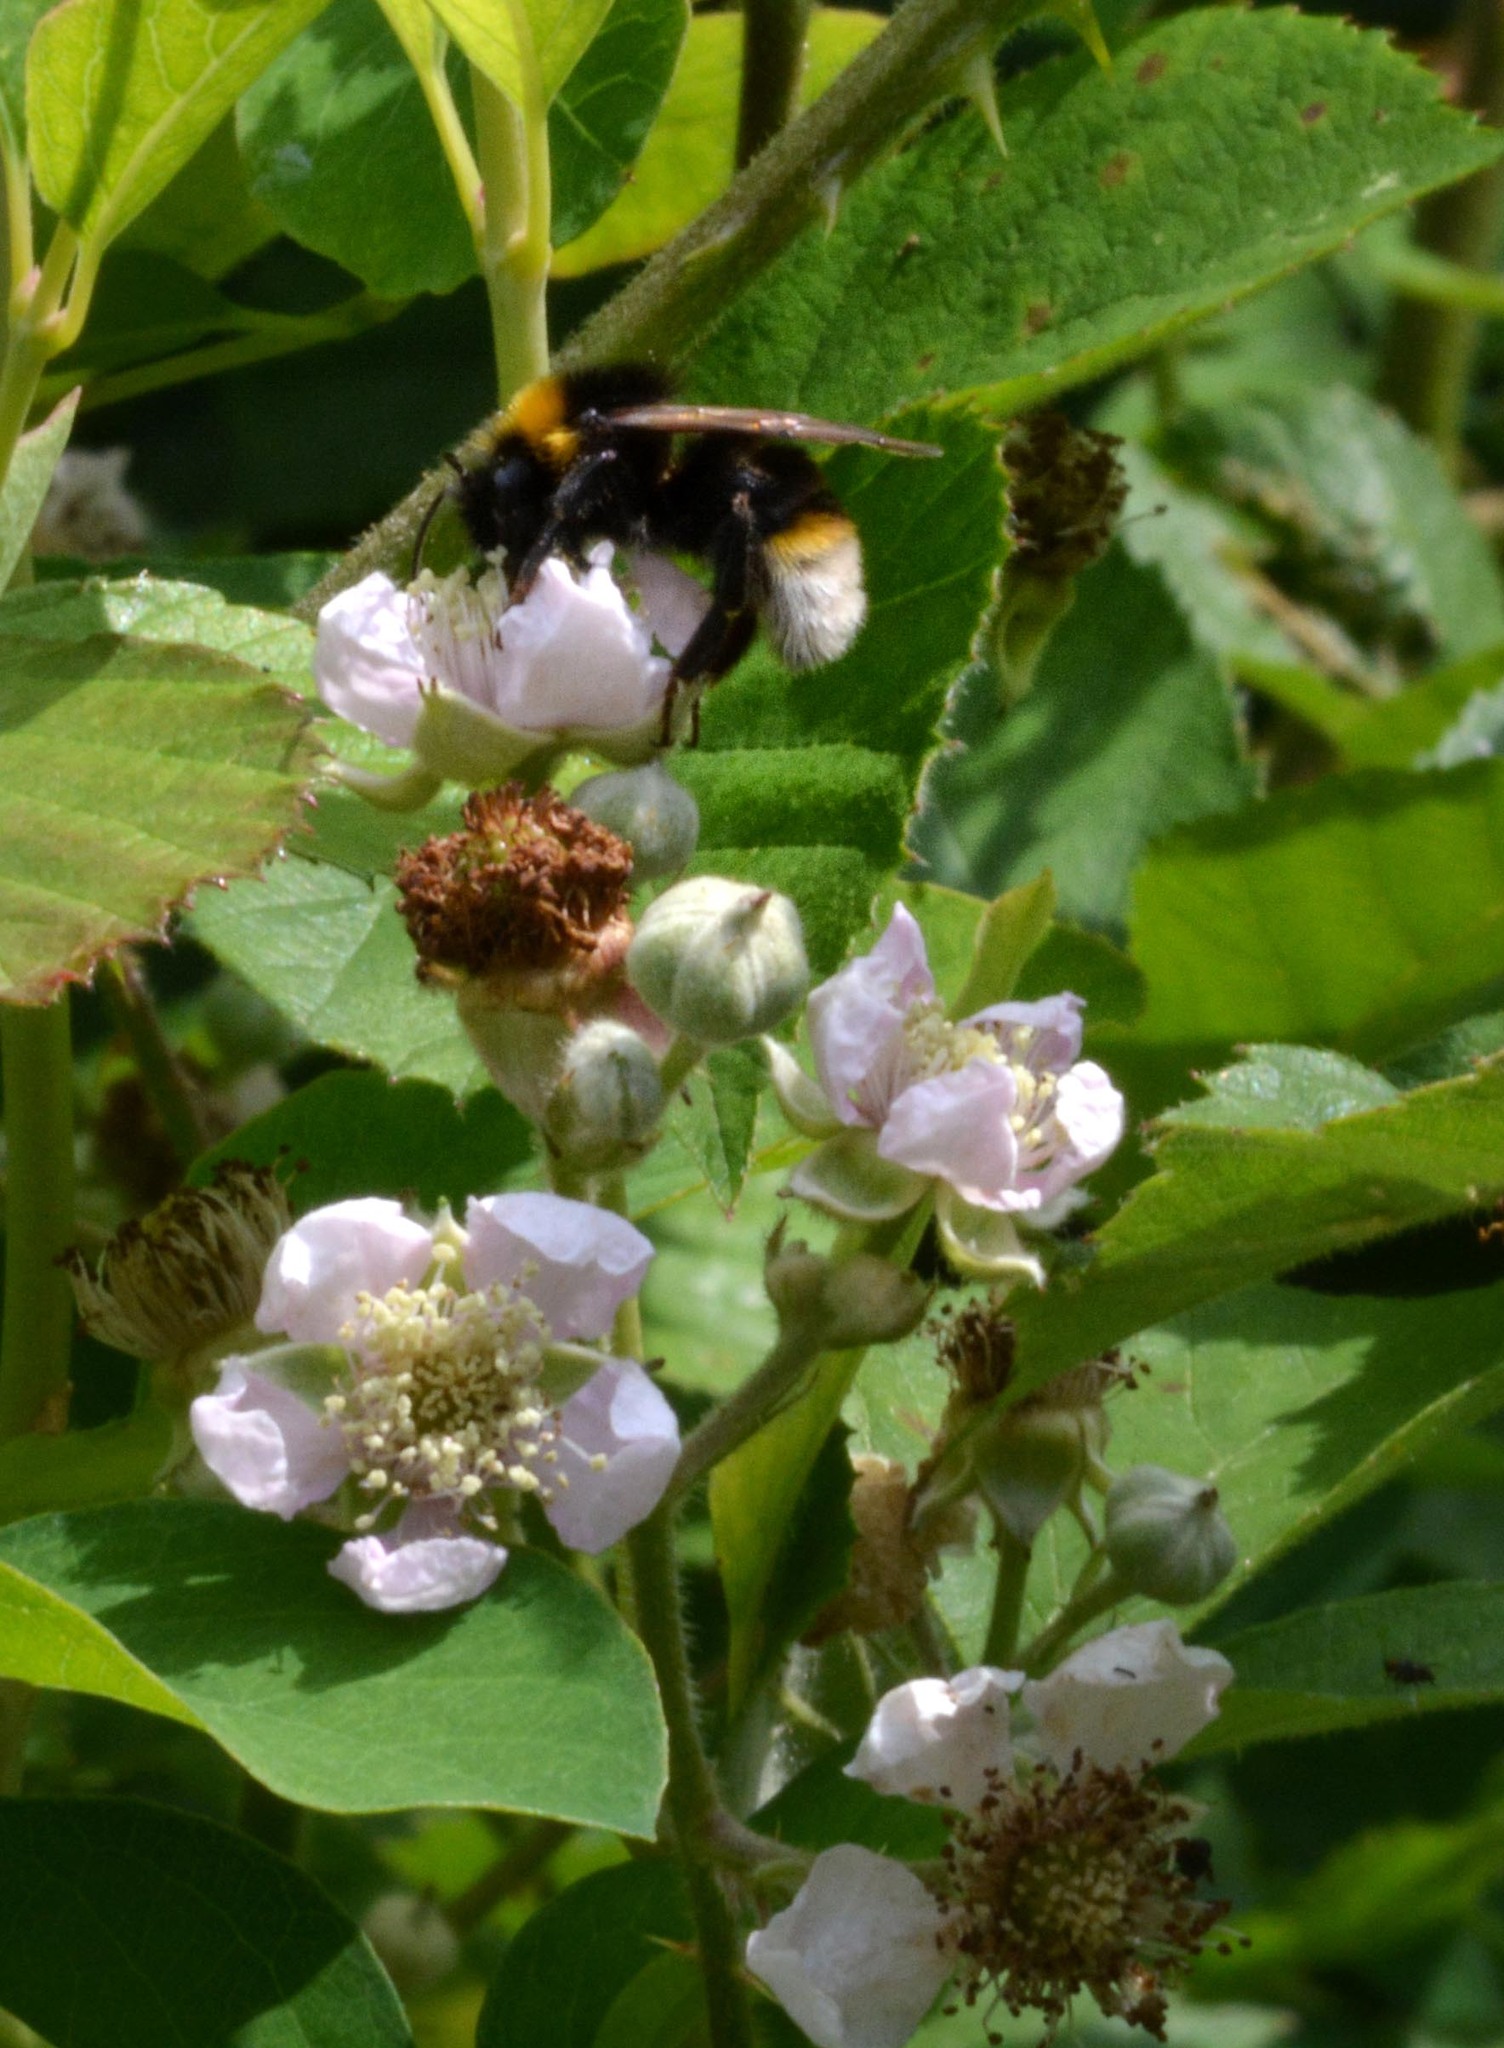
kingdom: Animalia
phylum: Arthropoda
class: Insecta
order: Hymenoptera
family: Apidae
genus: Bombus
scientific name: Bombus vestalis
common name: Vestal cuckoo bee
